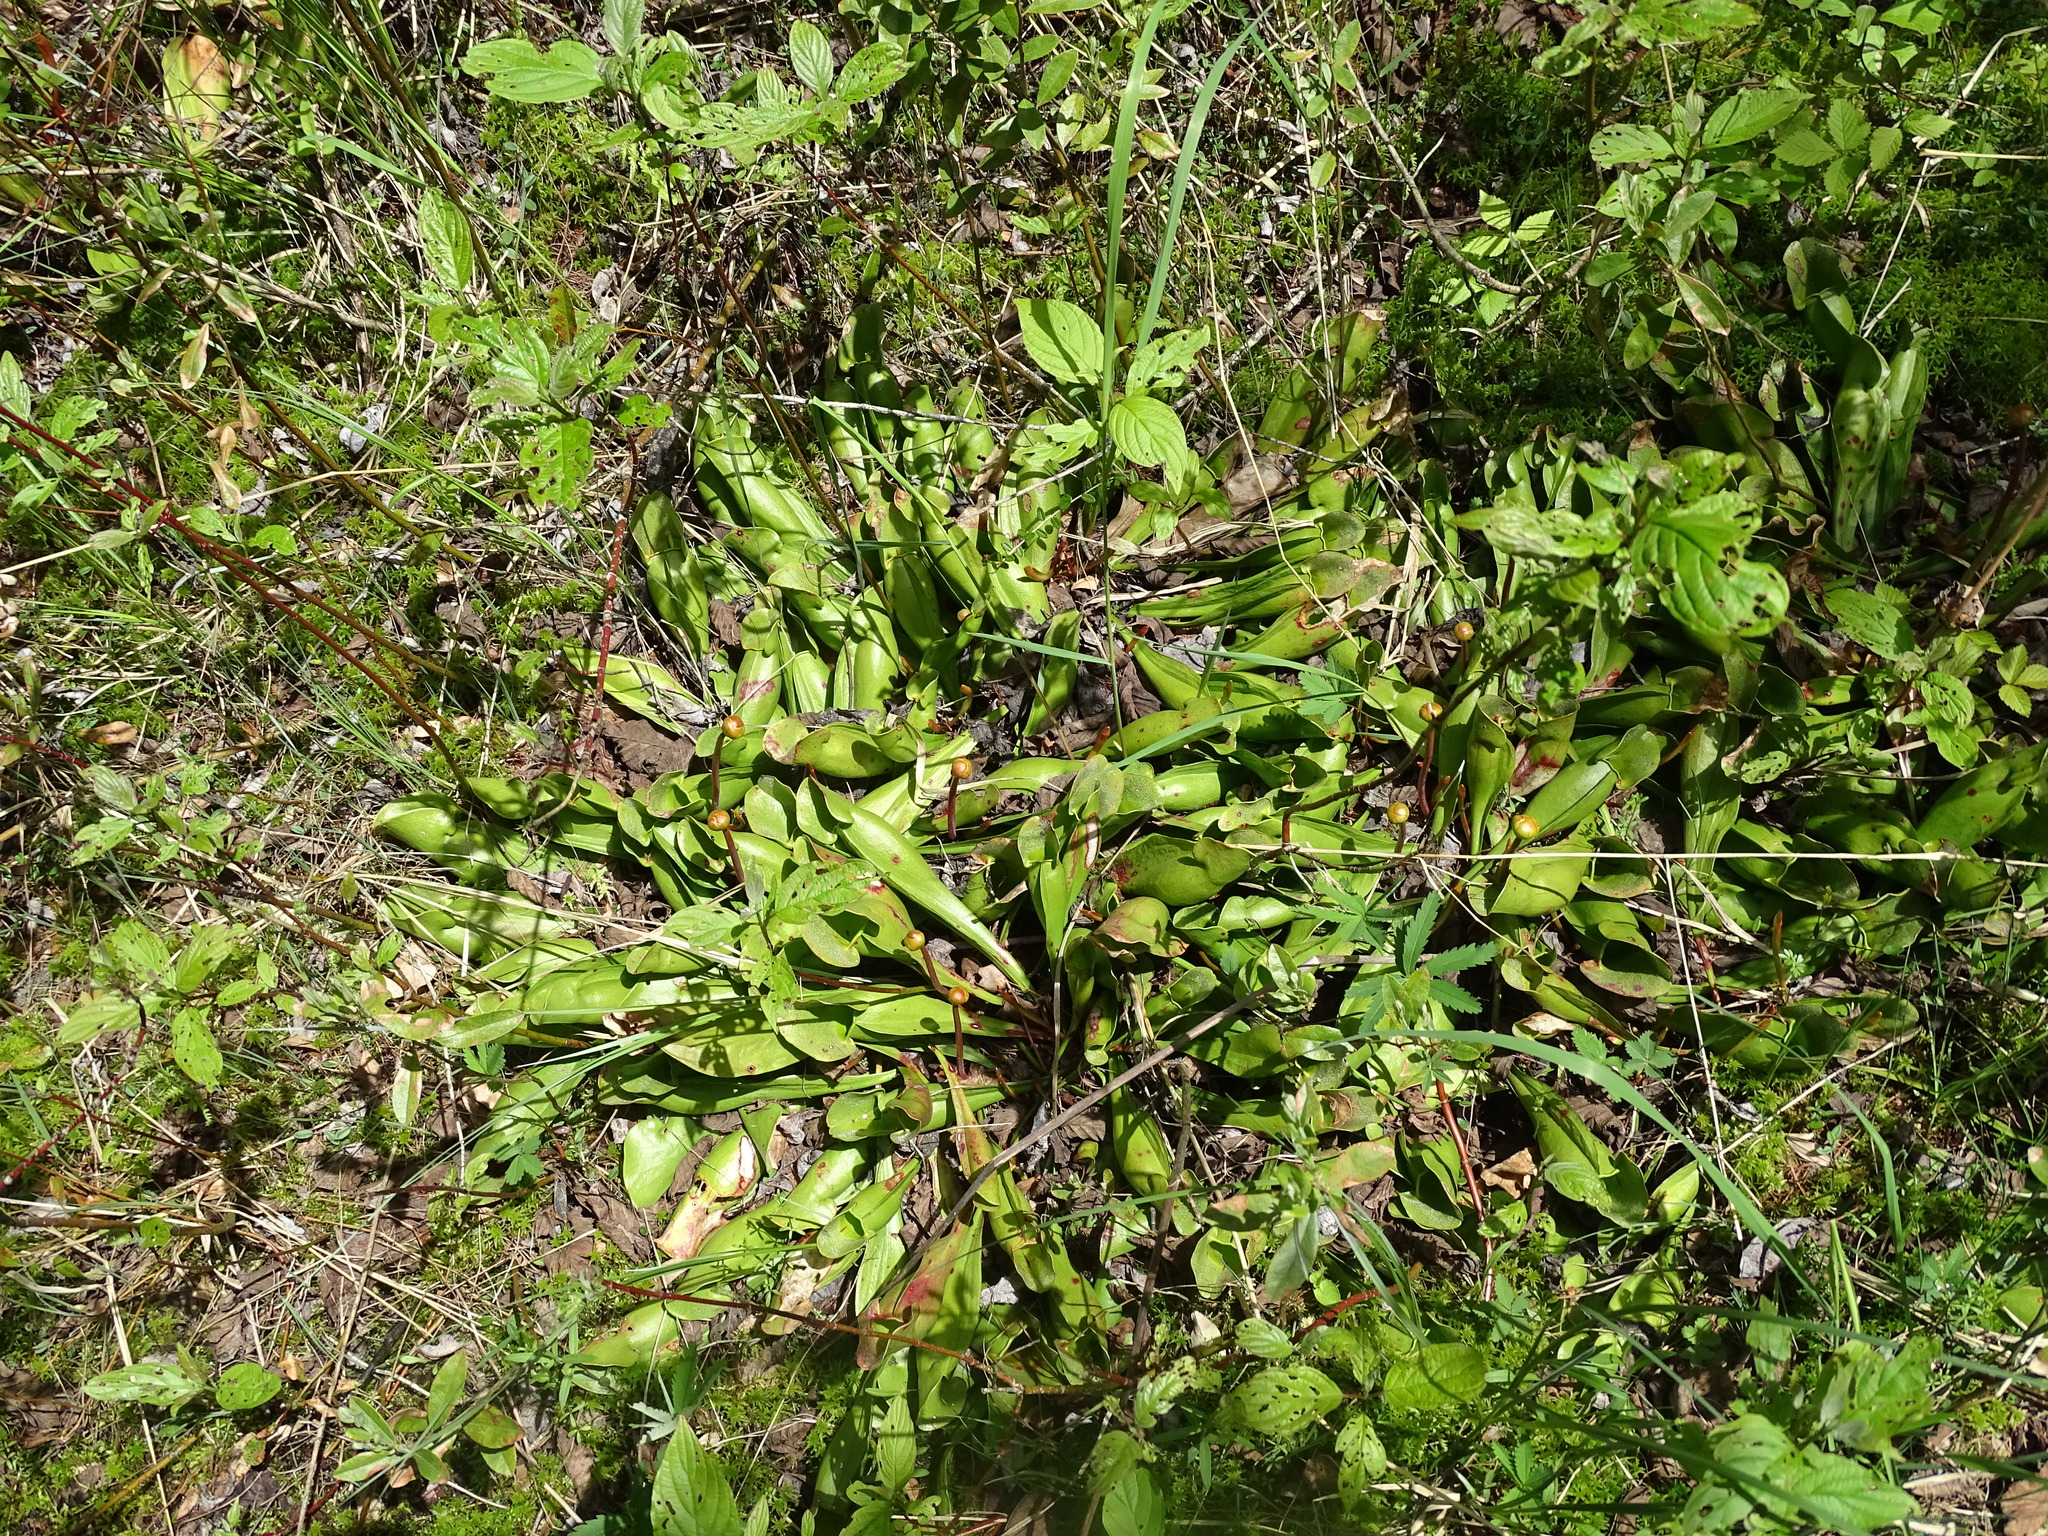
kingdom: Plantae
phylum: Tracheophyta
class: Magnoliopsida
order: Ericales
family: Sarraceniaceae
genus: Sarracenia
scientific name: Sarracenia purpurea
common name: Pitcherplant
